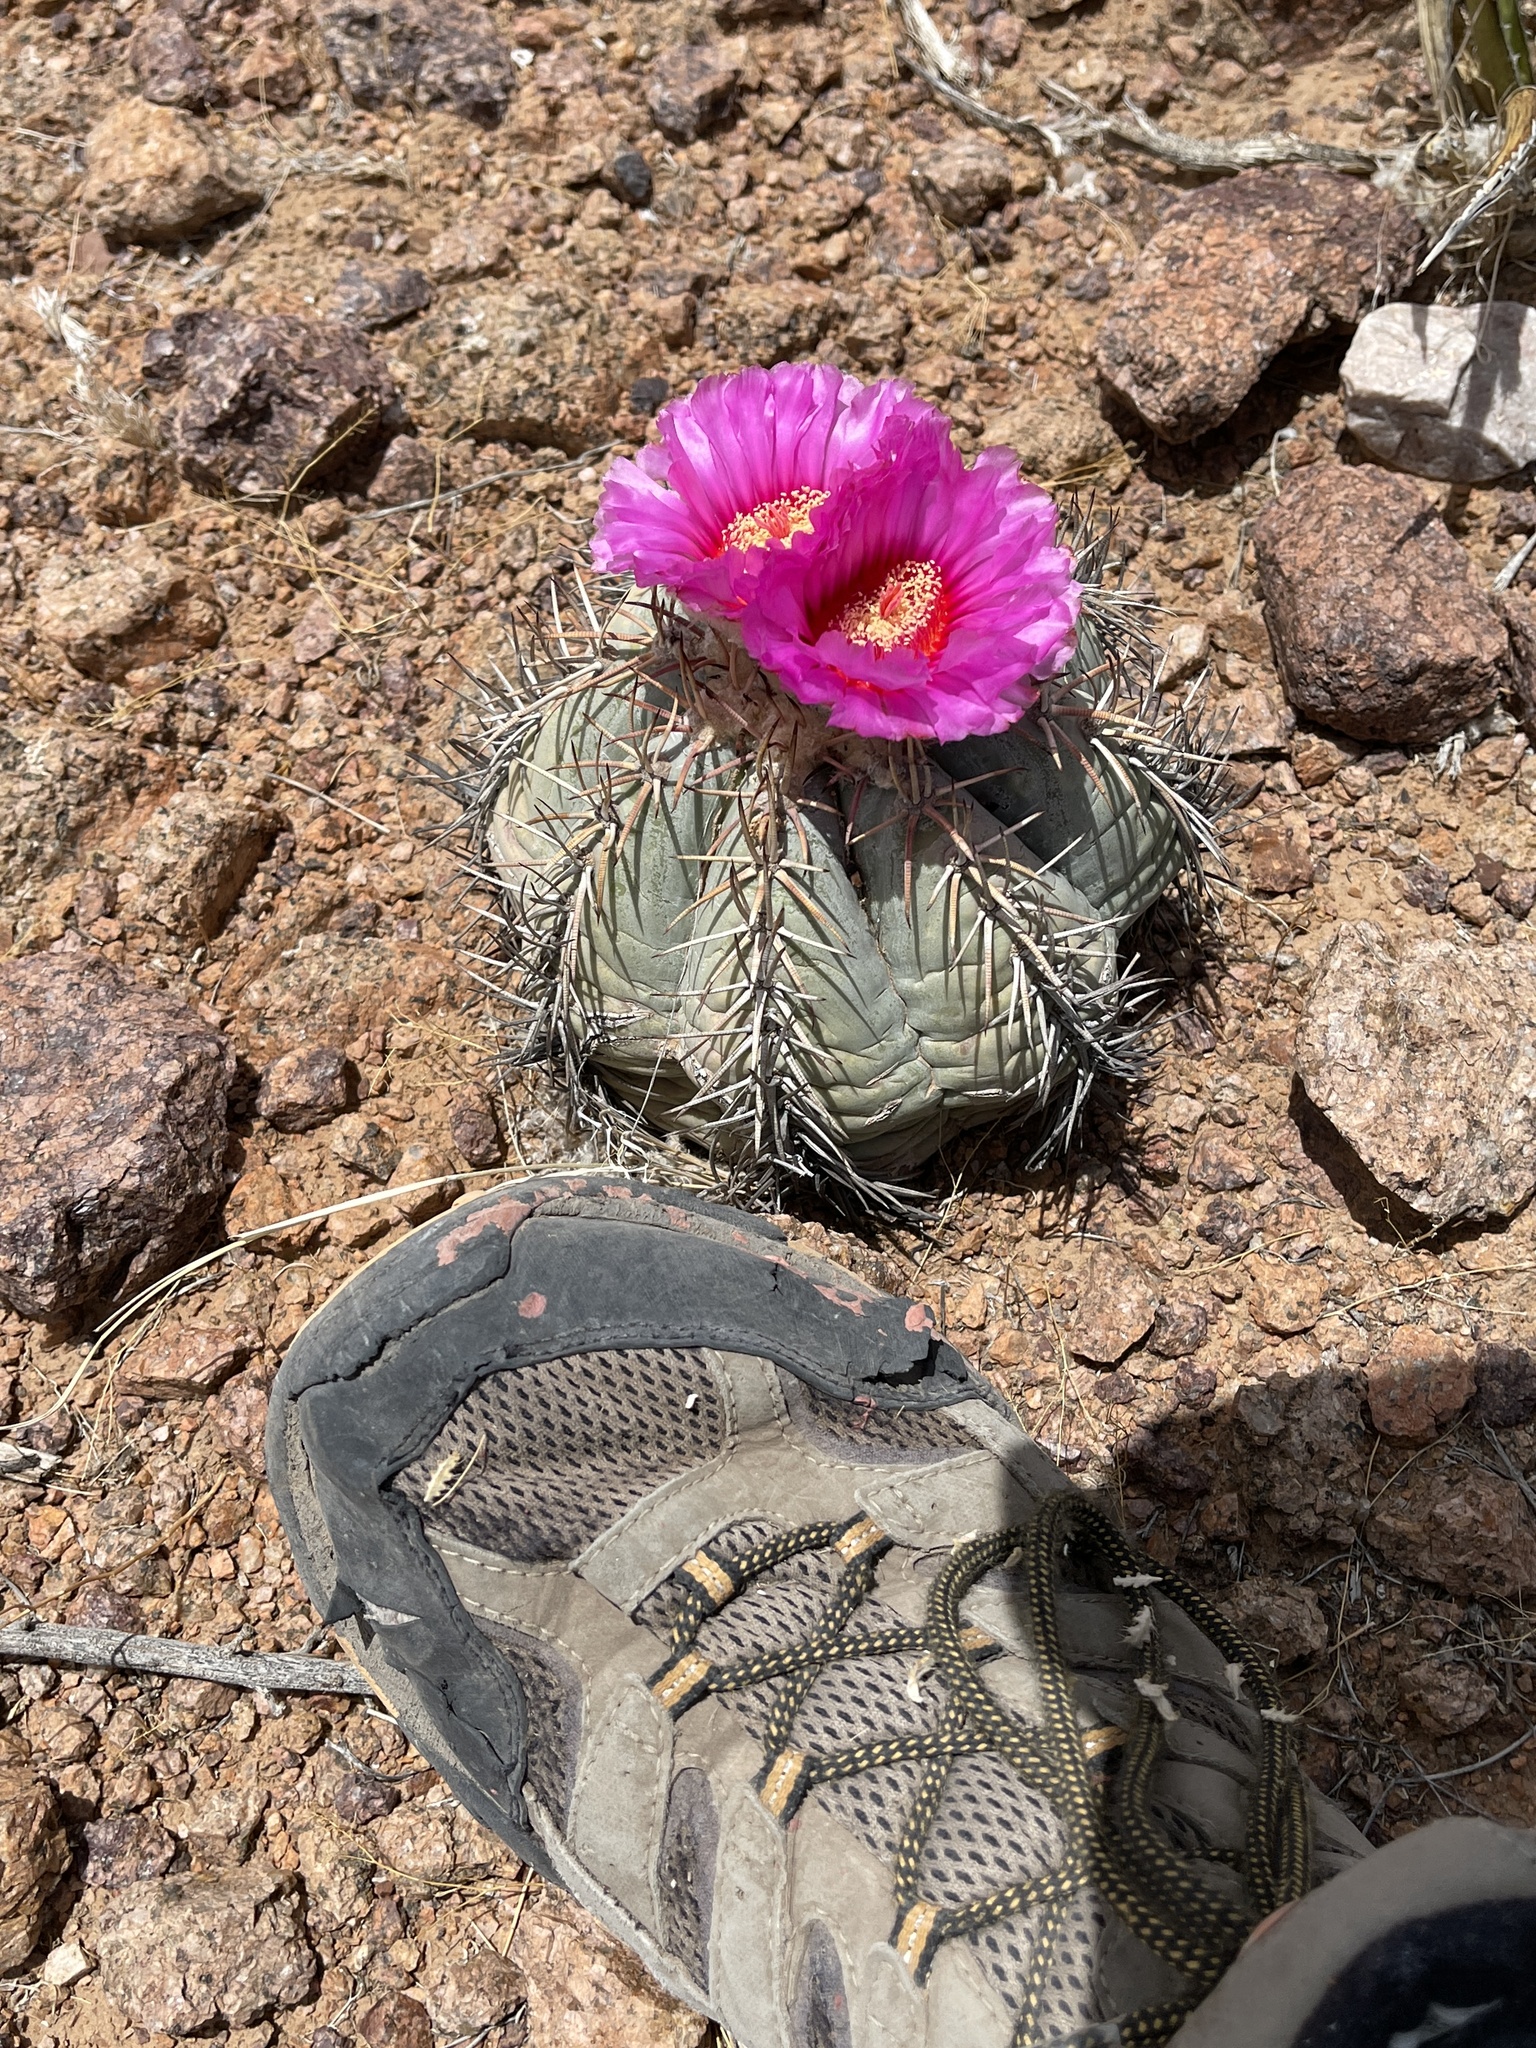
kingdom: Plantae
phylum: Tracheophyta
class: Magnoliopsida
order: Caryophyllales
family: Cactaceae
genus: Echinocactus
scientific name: Echinocactus horizonthalonius
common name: Devilshead
